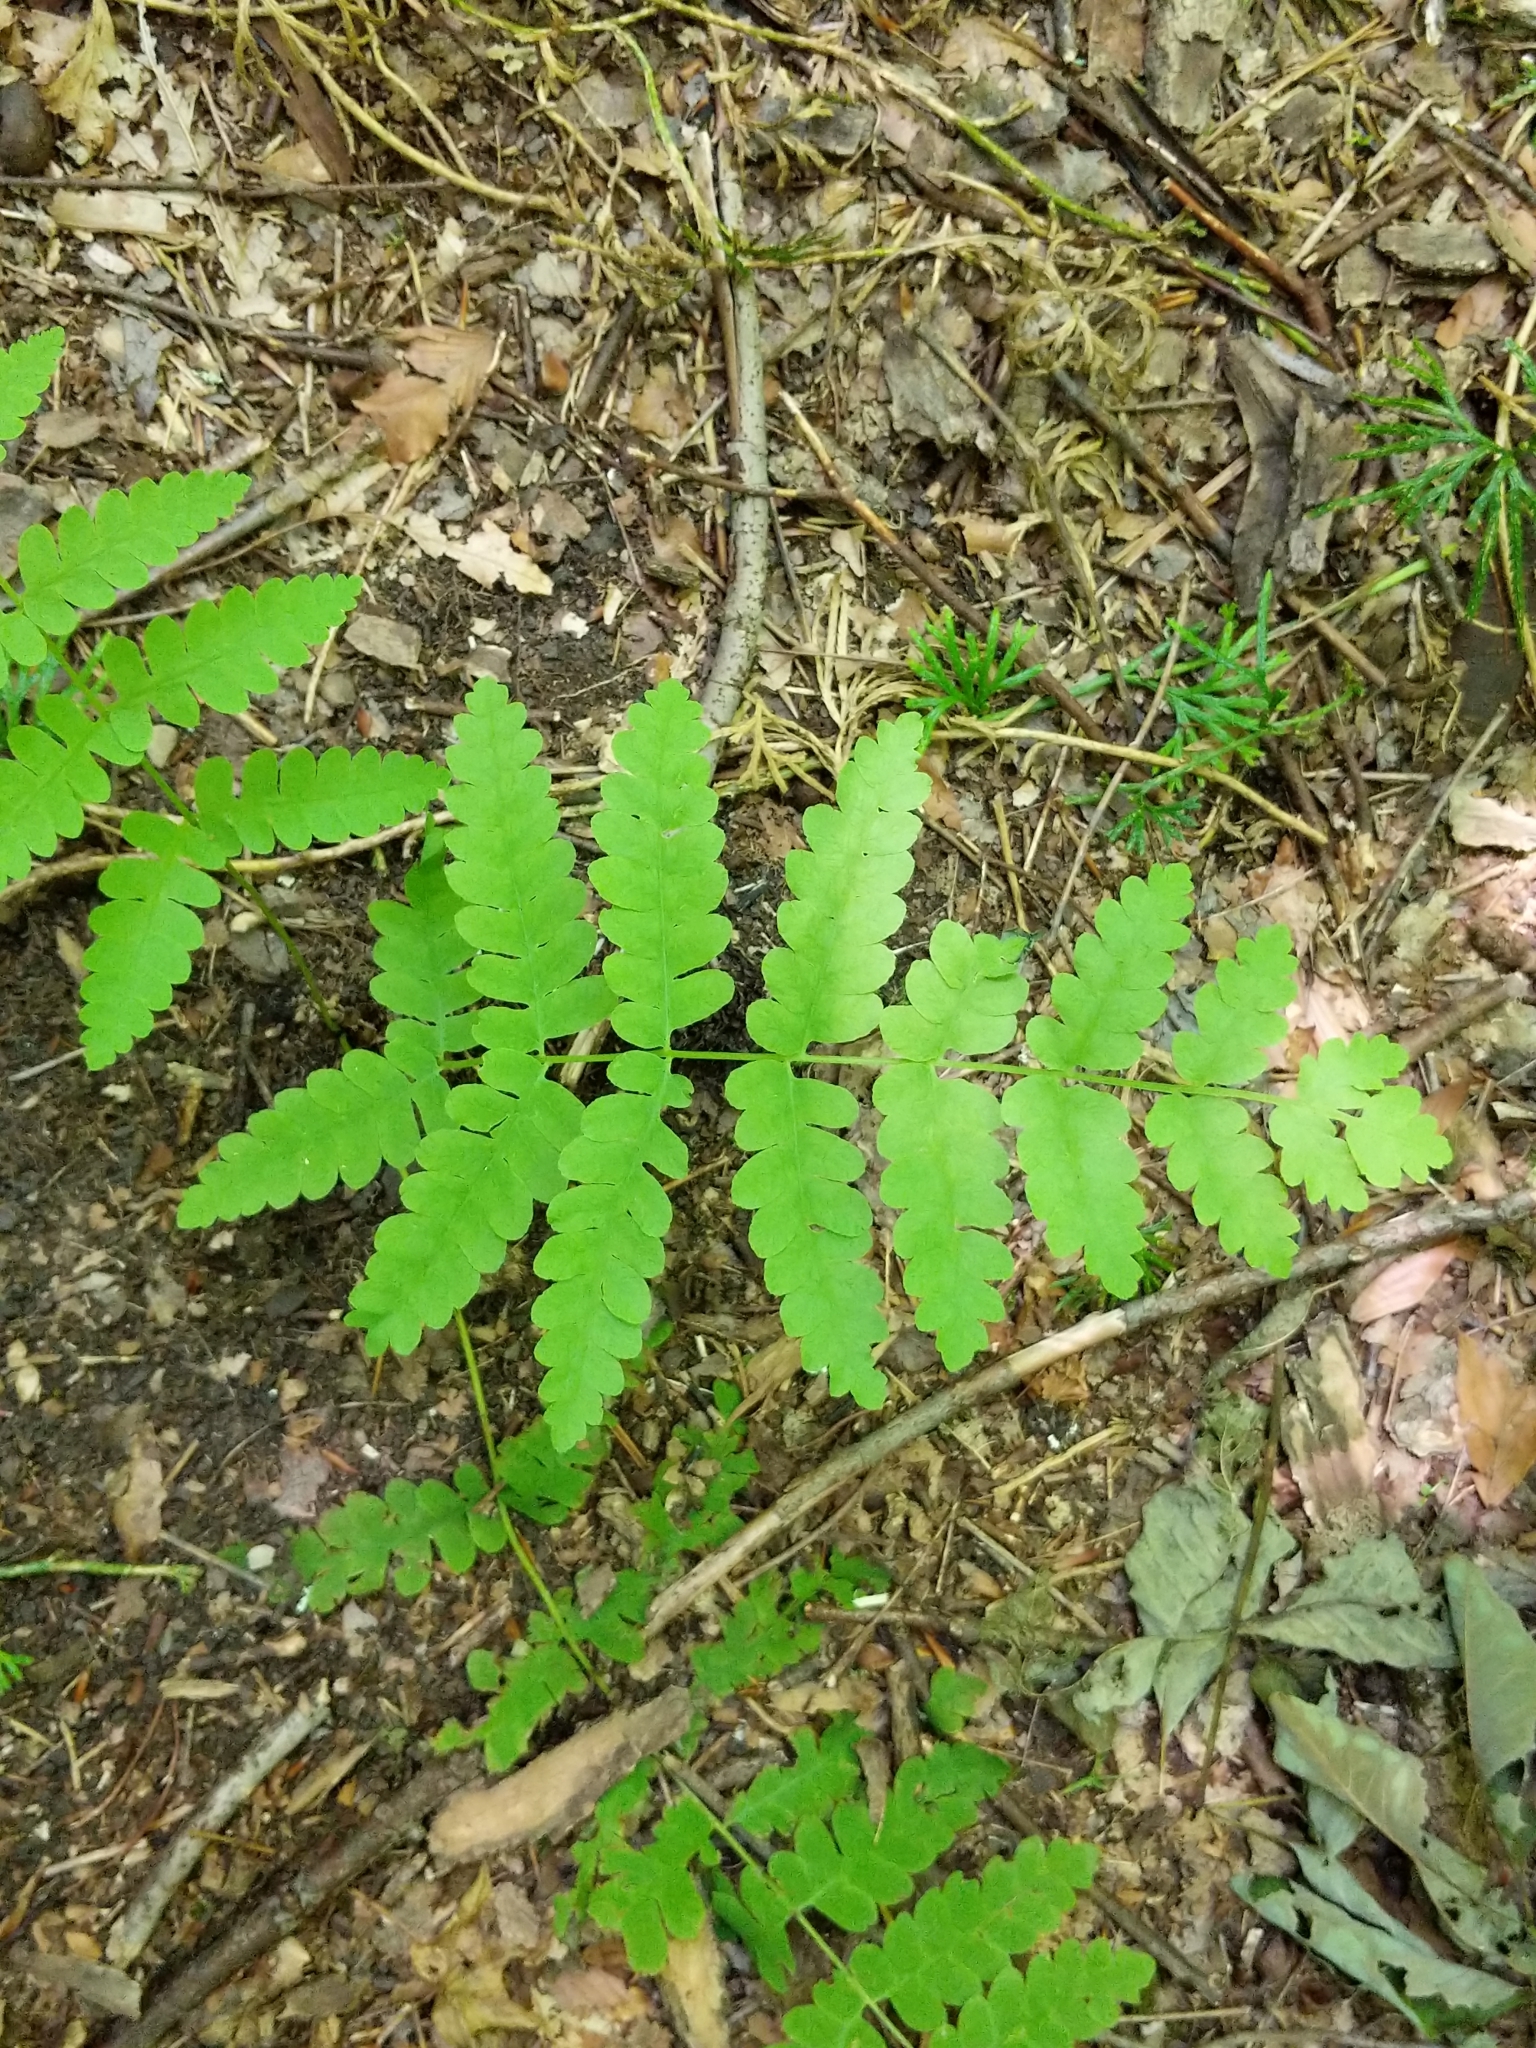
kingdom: Plantae
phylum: Tracheophyta
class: Polypodiopsida
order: Osmundales
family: Osmundaceae
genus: Claytosmunda
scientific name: Claytosmunda claytoniana
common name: Clayton's fern
